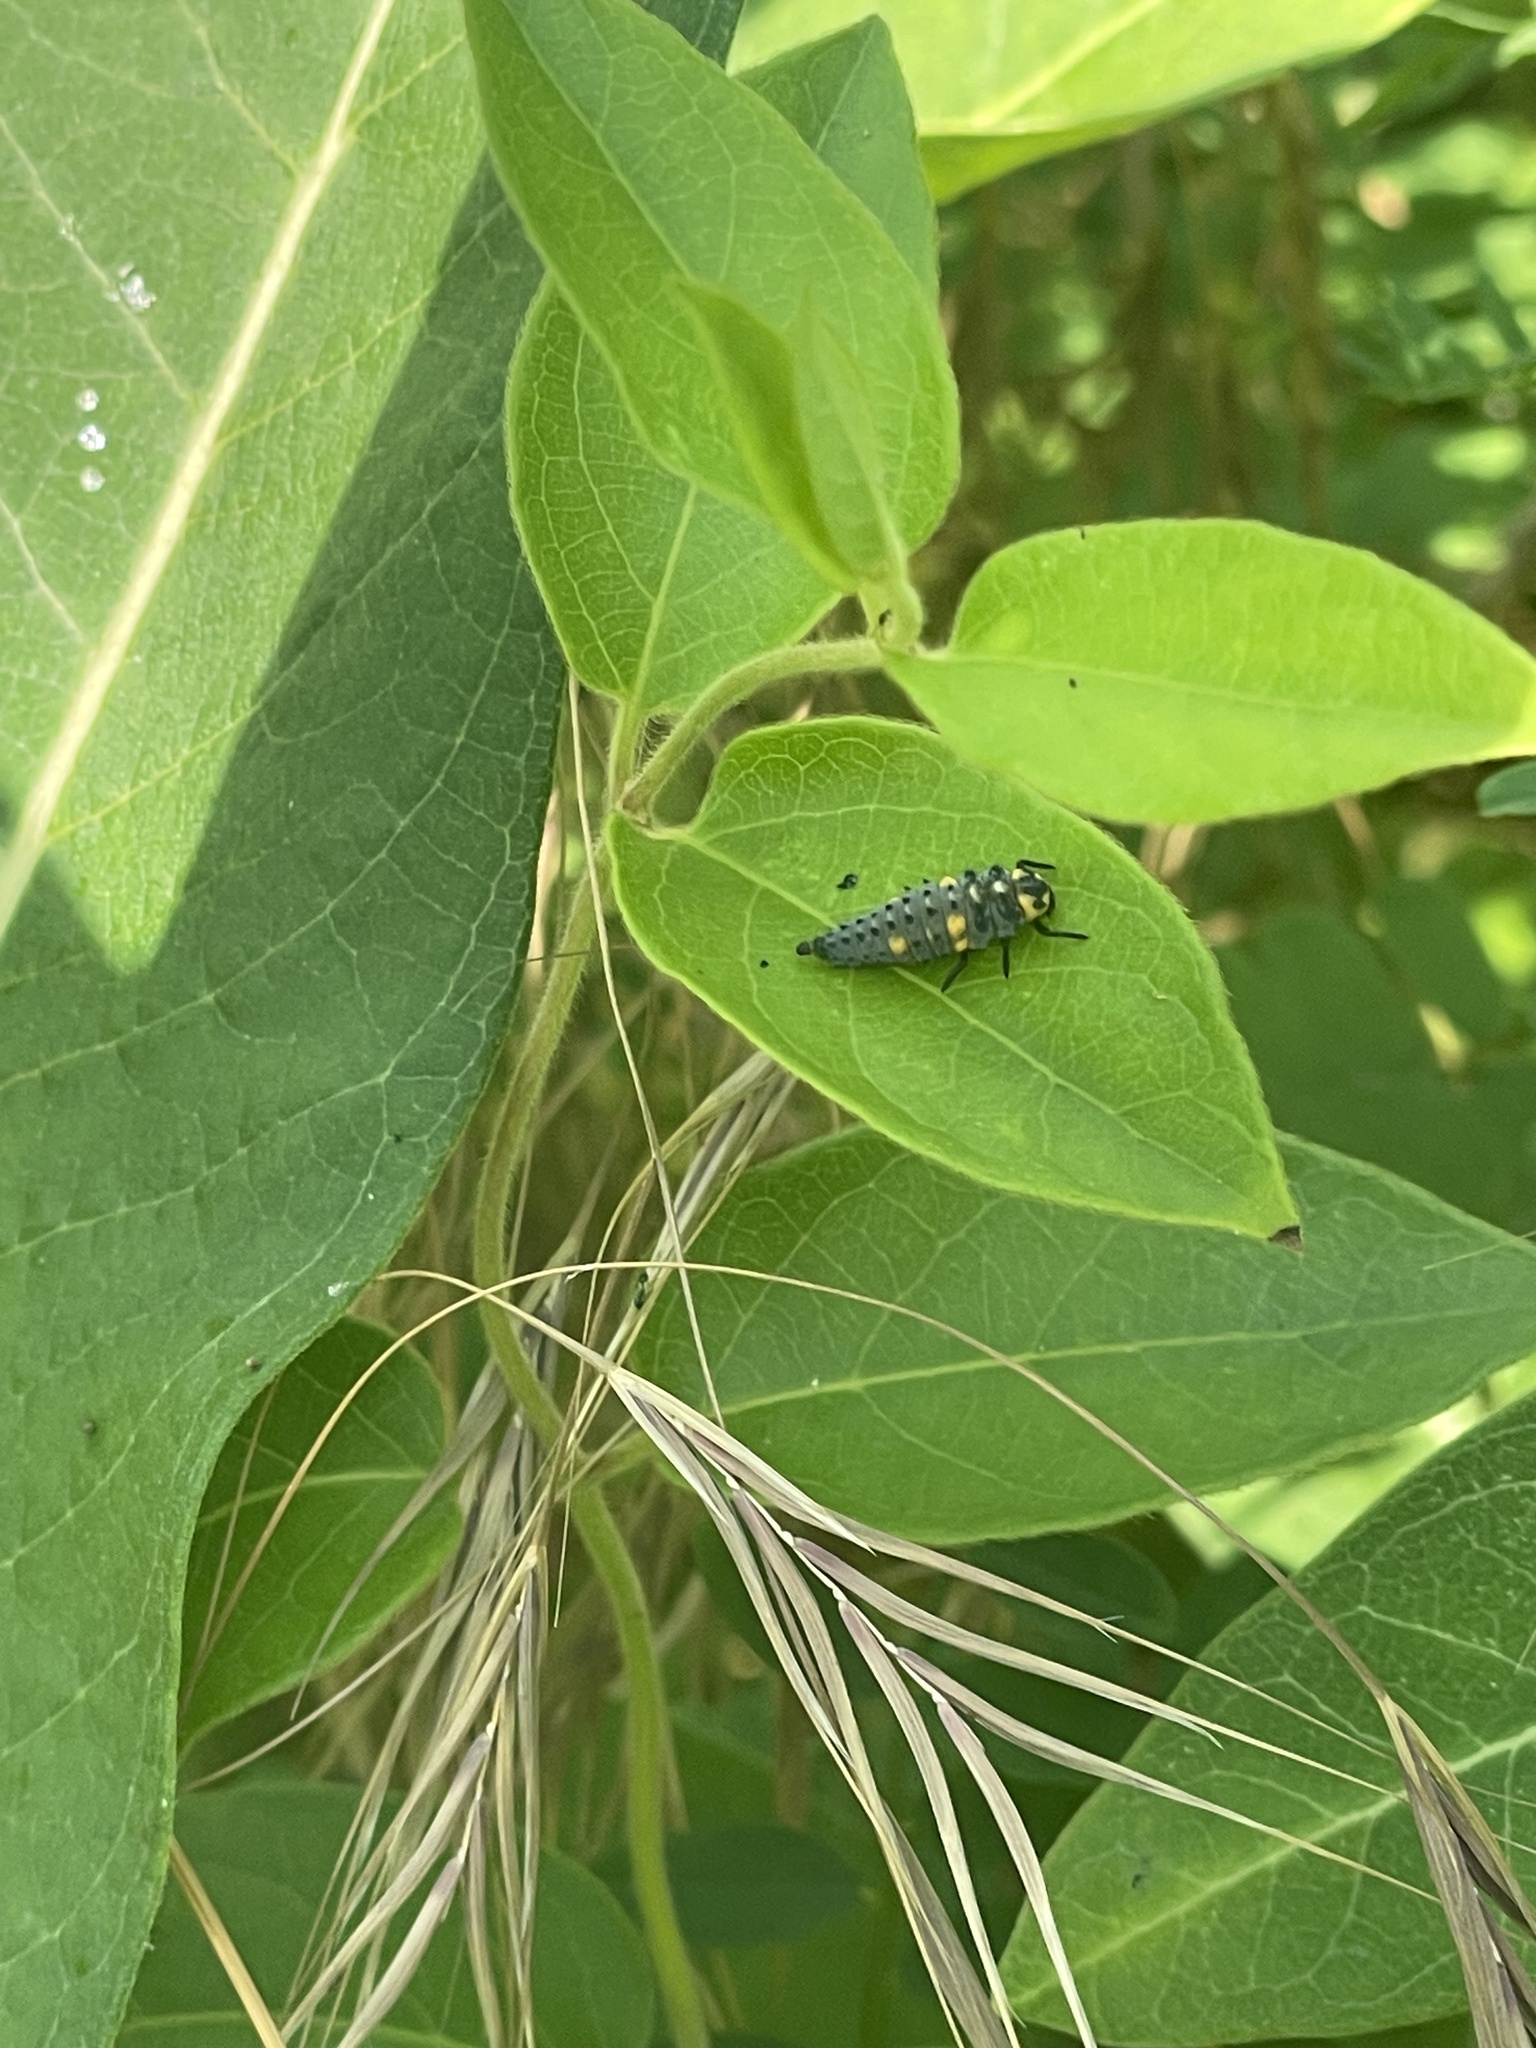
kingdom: Animalia
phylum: Arthropoda
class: Insecta
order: Coleoptera
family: Coccinellidae
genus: Coccinella
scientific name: Coccinella septempunctata
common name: Sevenspotted lady beetle
